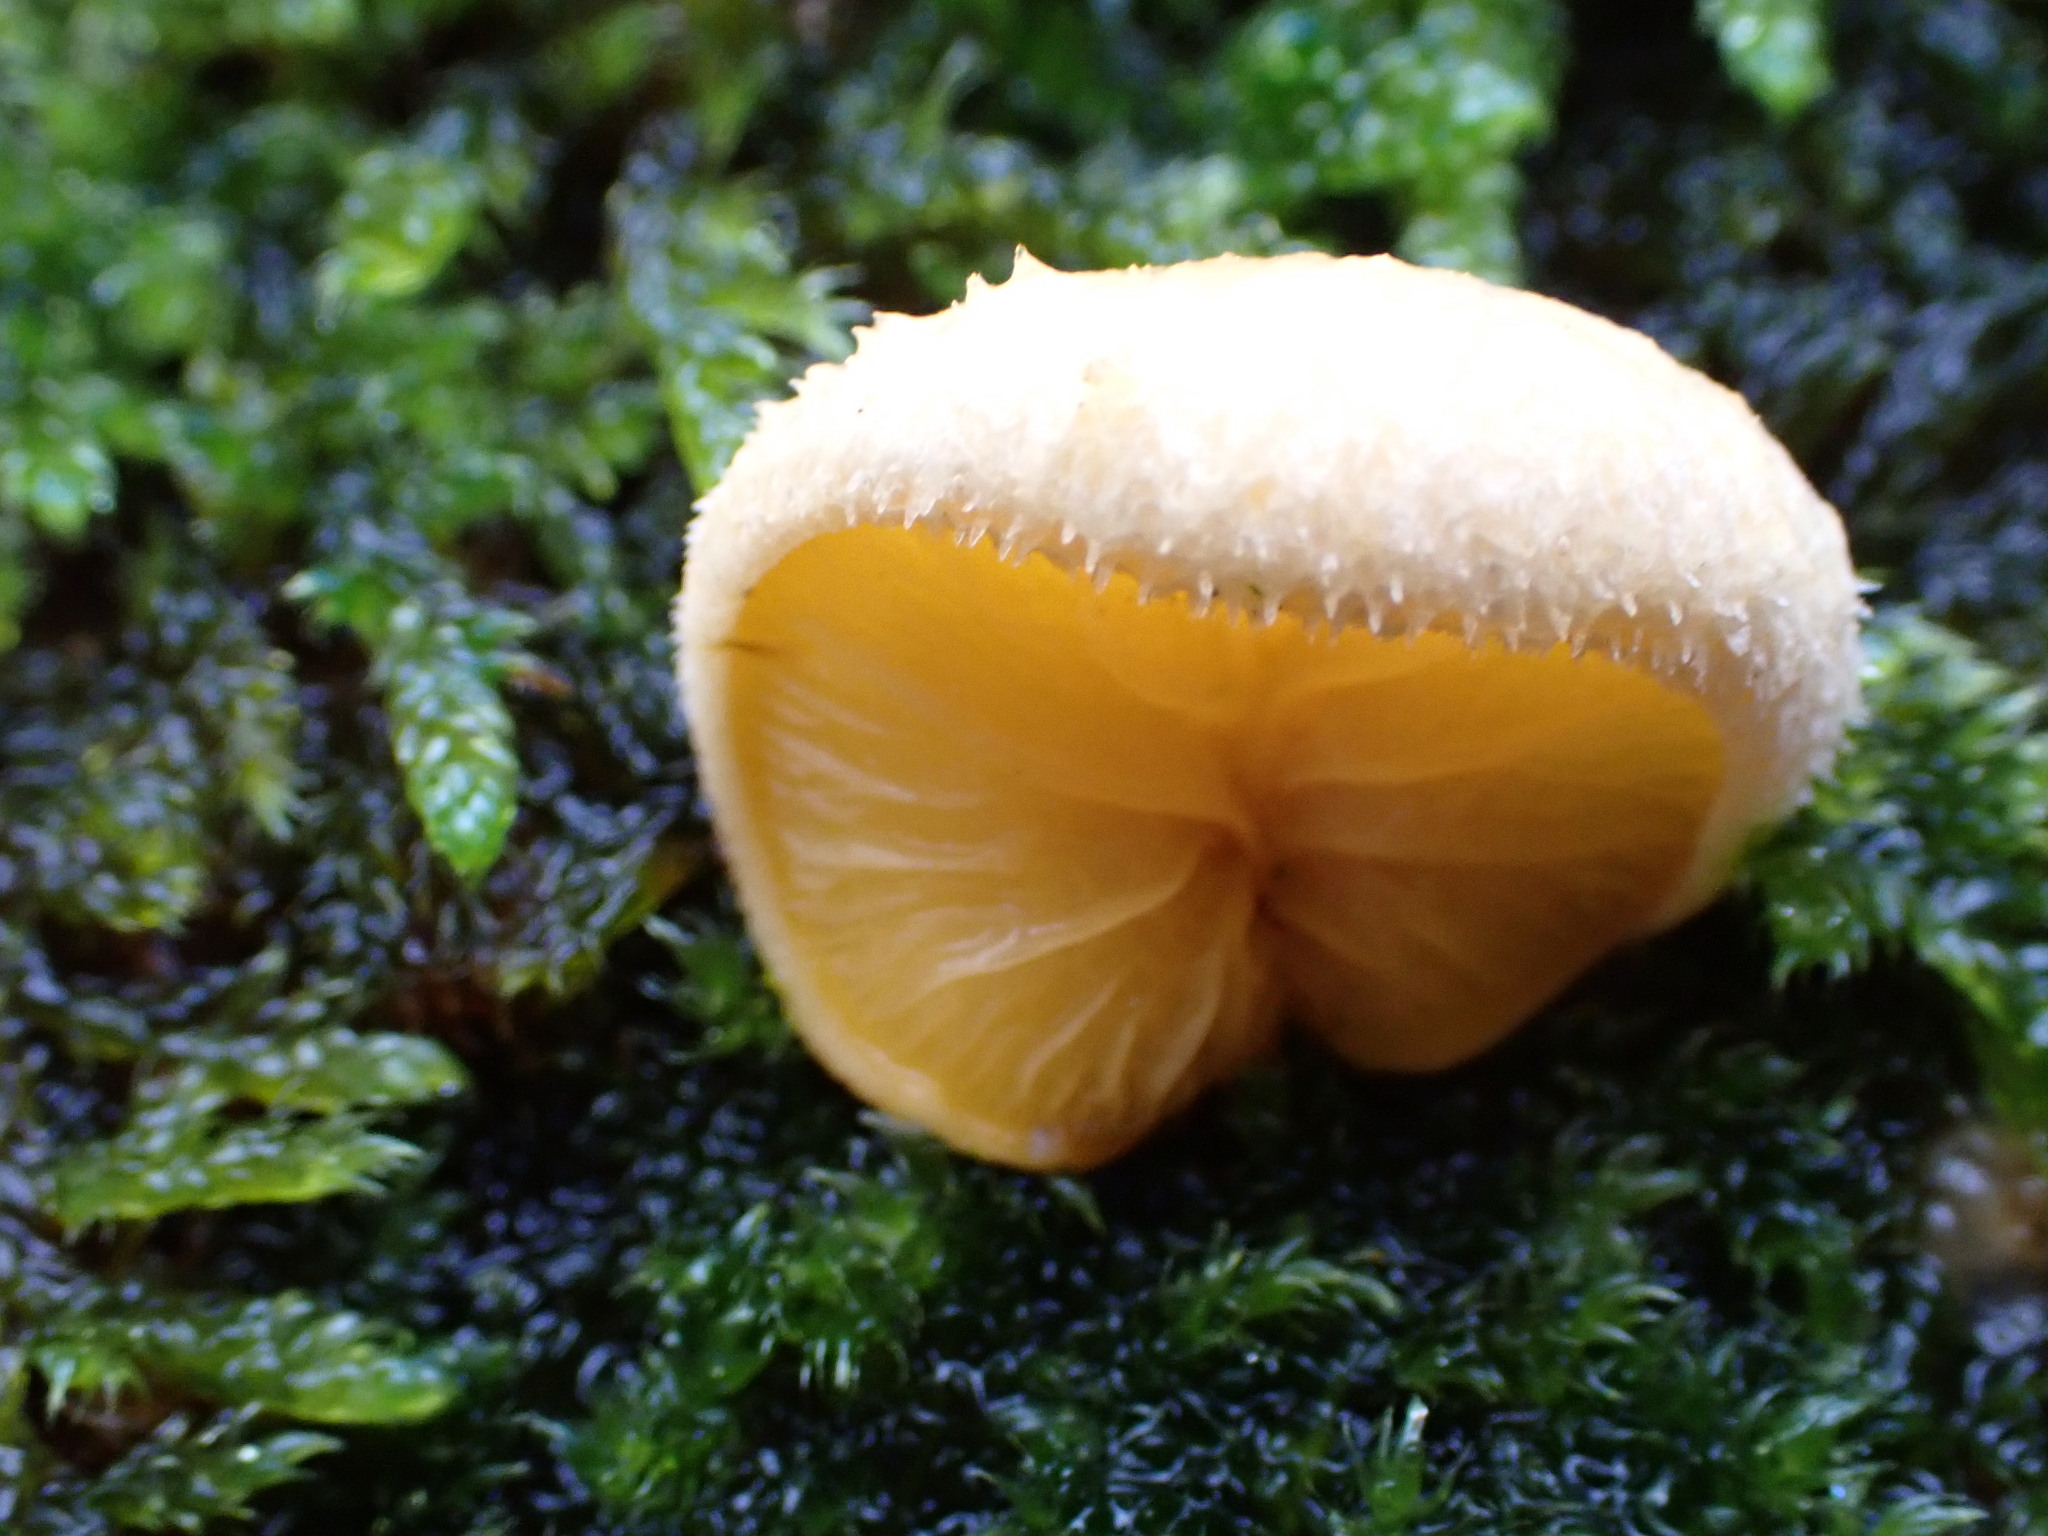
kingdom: Fungi
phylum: Basidiomycota
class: Agaricomycetes
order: Agaricales
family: Phyllotopsidaceae
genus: Phyllotopsis
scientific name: Phyllotopsis nidulans
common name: Orange mock oyster
